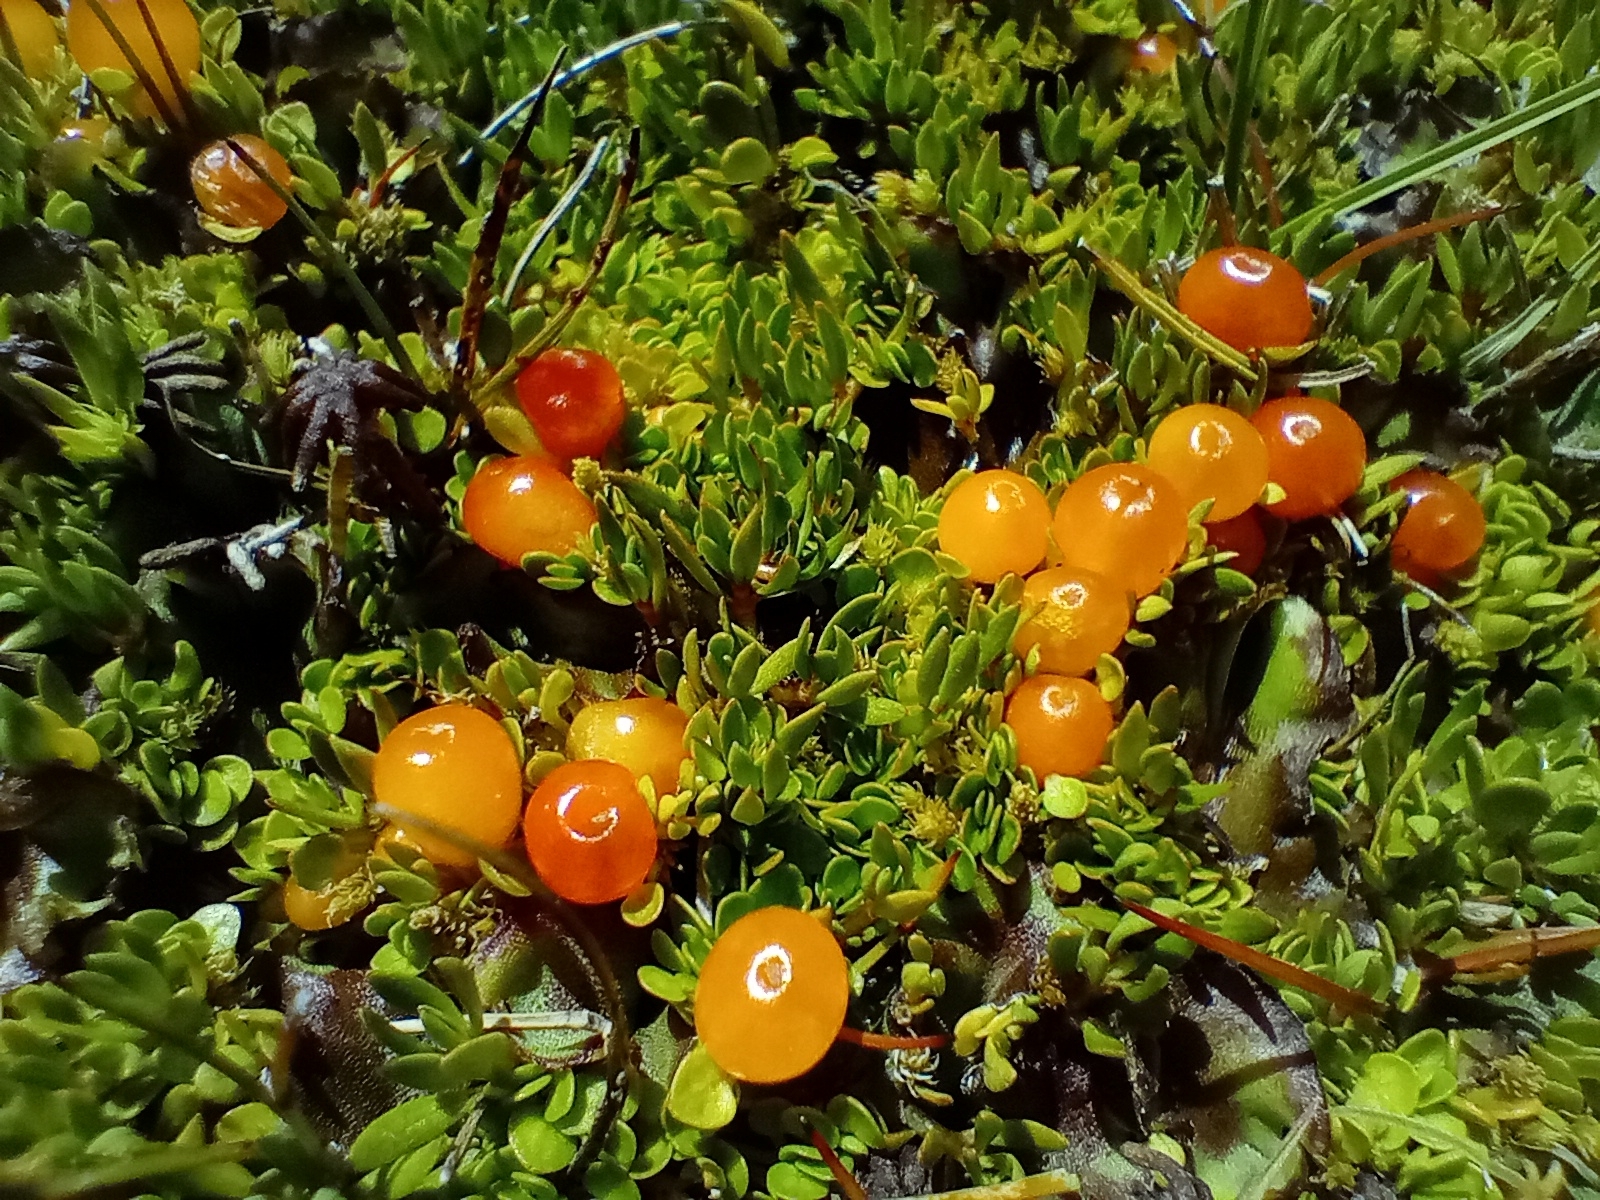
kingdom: Plantae
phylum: Tracheophyta
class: Magnoliopsida
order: Gentianales
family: Rubiaceae
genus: Nertera
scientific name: Nertera balfouriana
